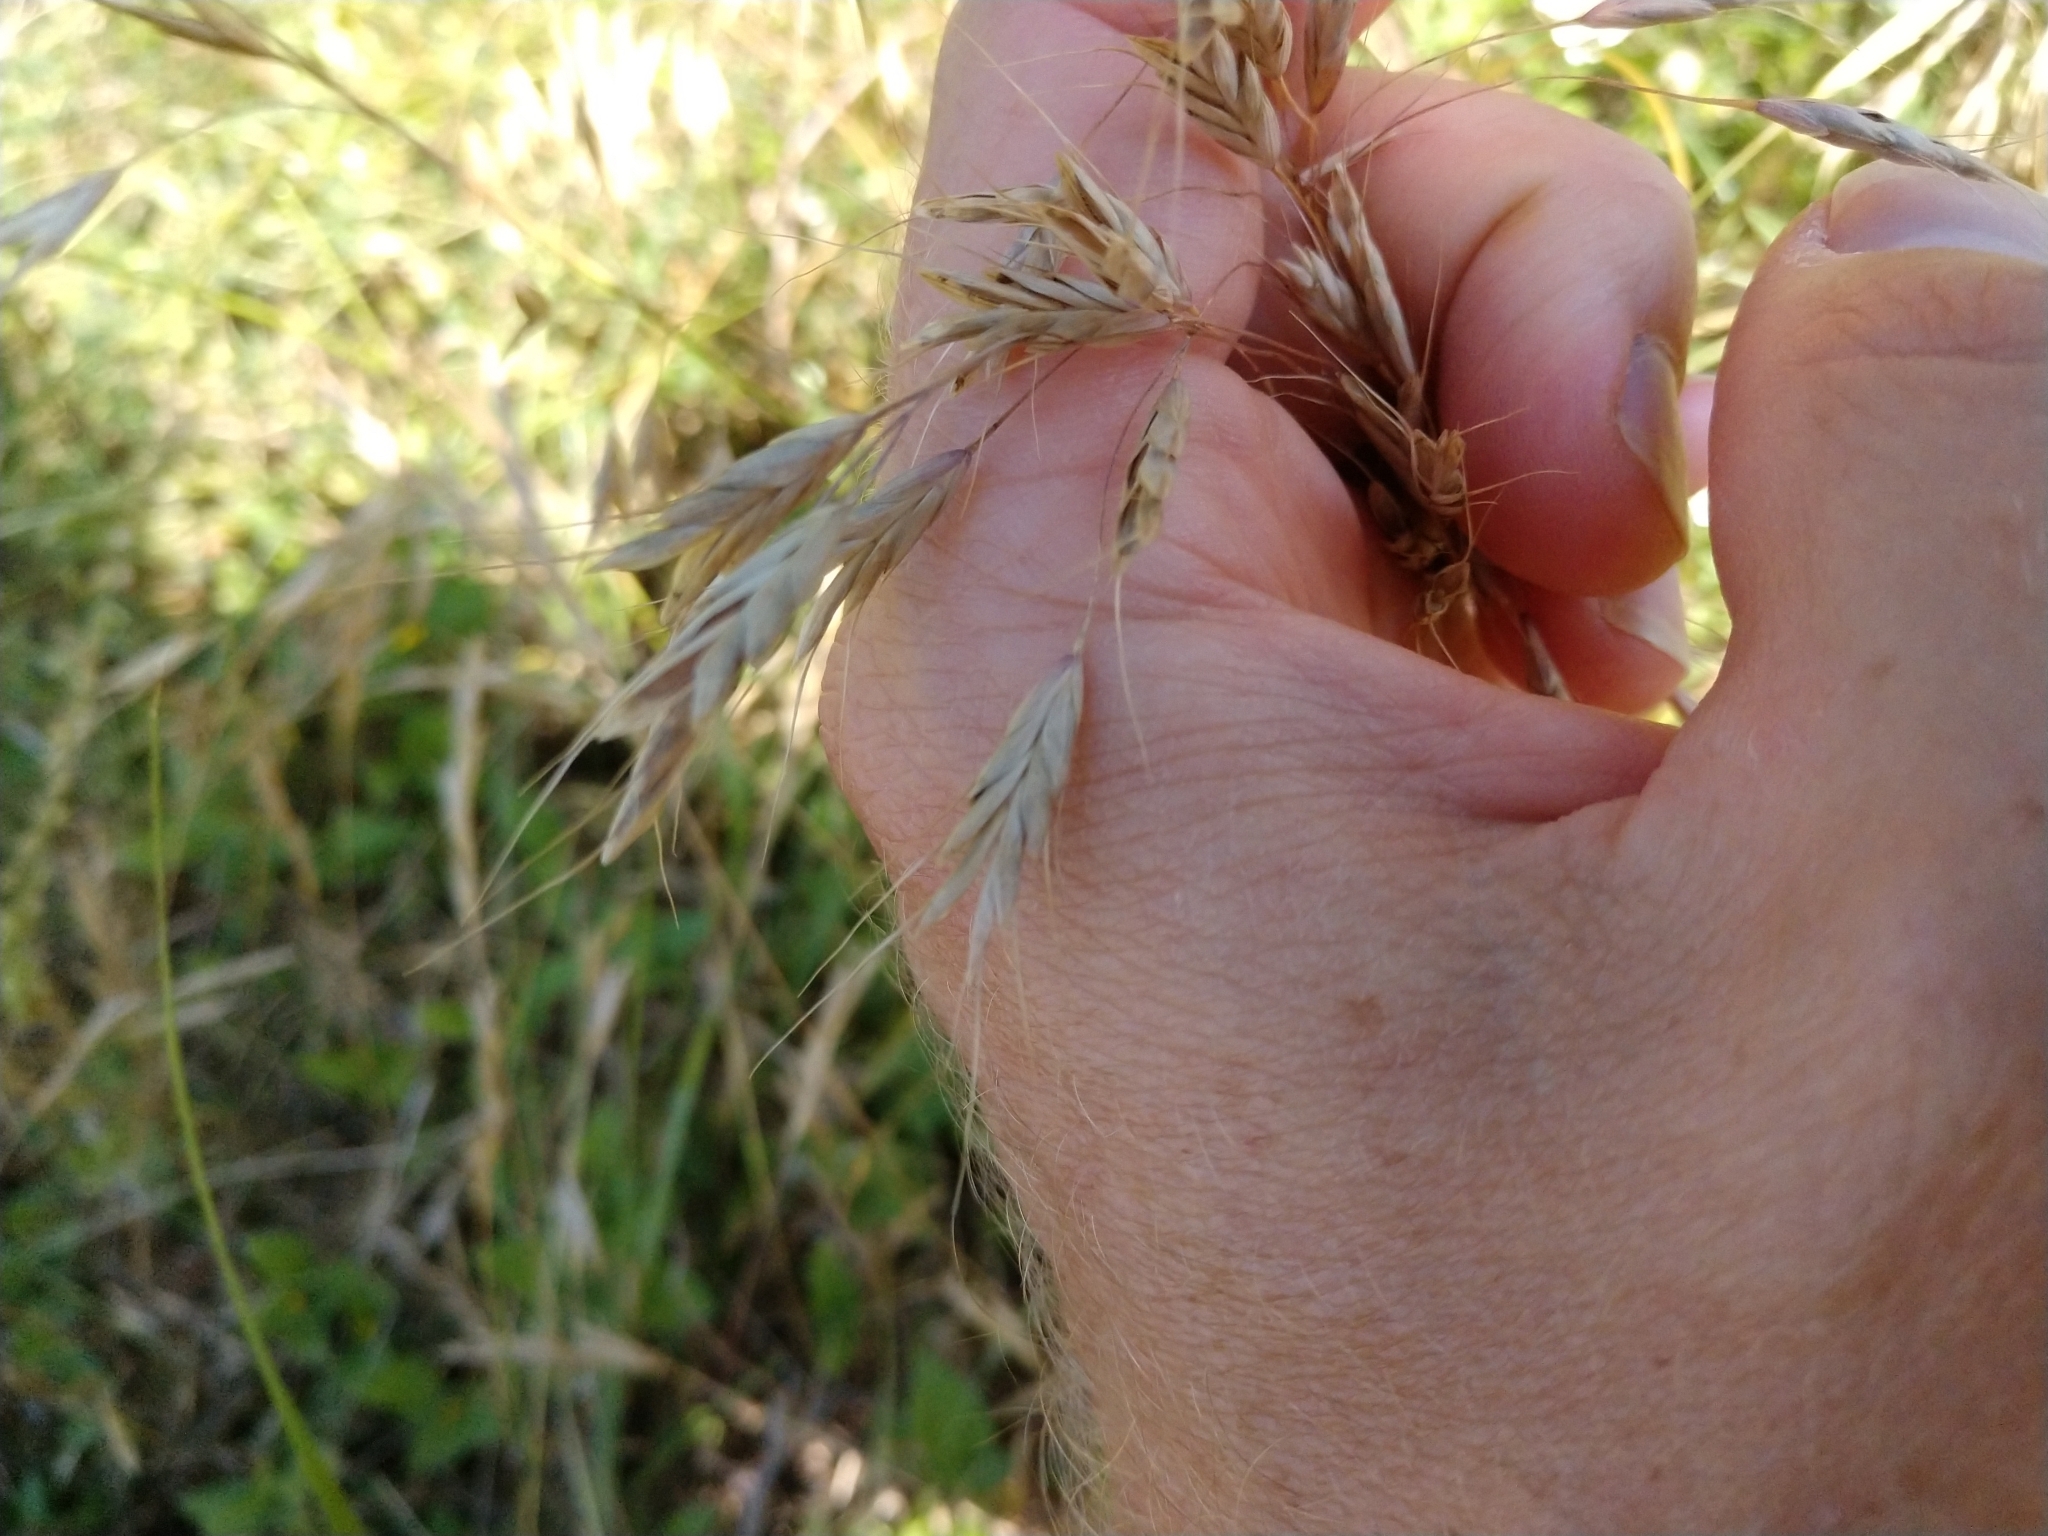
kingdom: Plantae
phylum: Tracheophyta
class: Liliopsida
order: Poales
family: Poaceae
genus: Bromus
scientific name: Bromus japonicus
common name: Japanese brome
